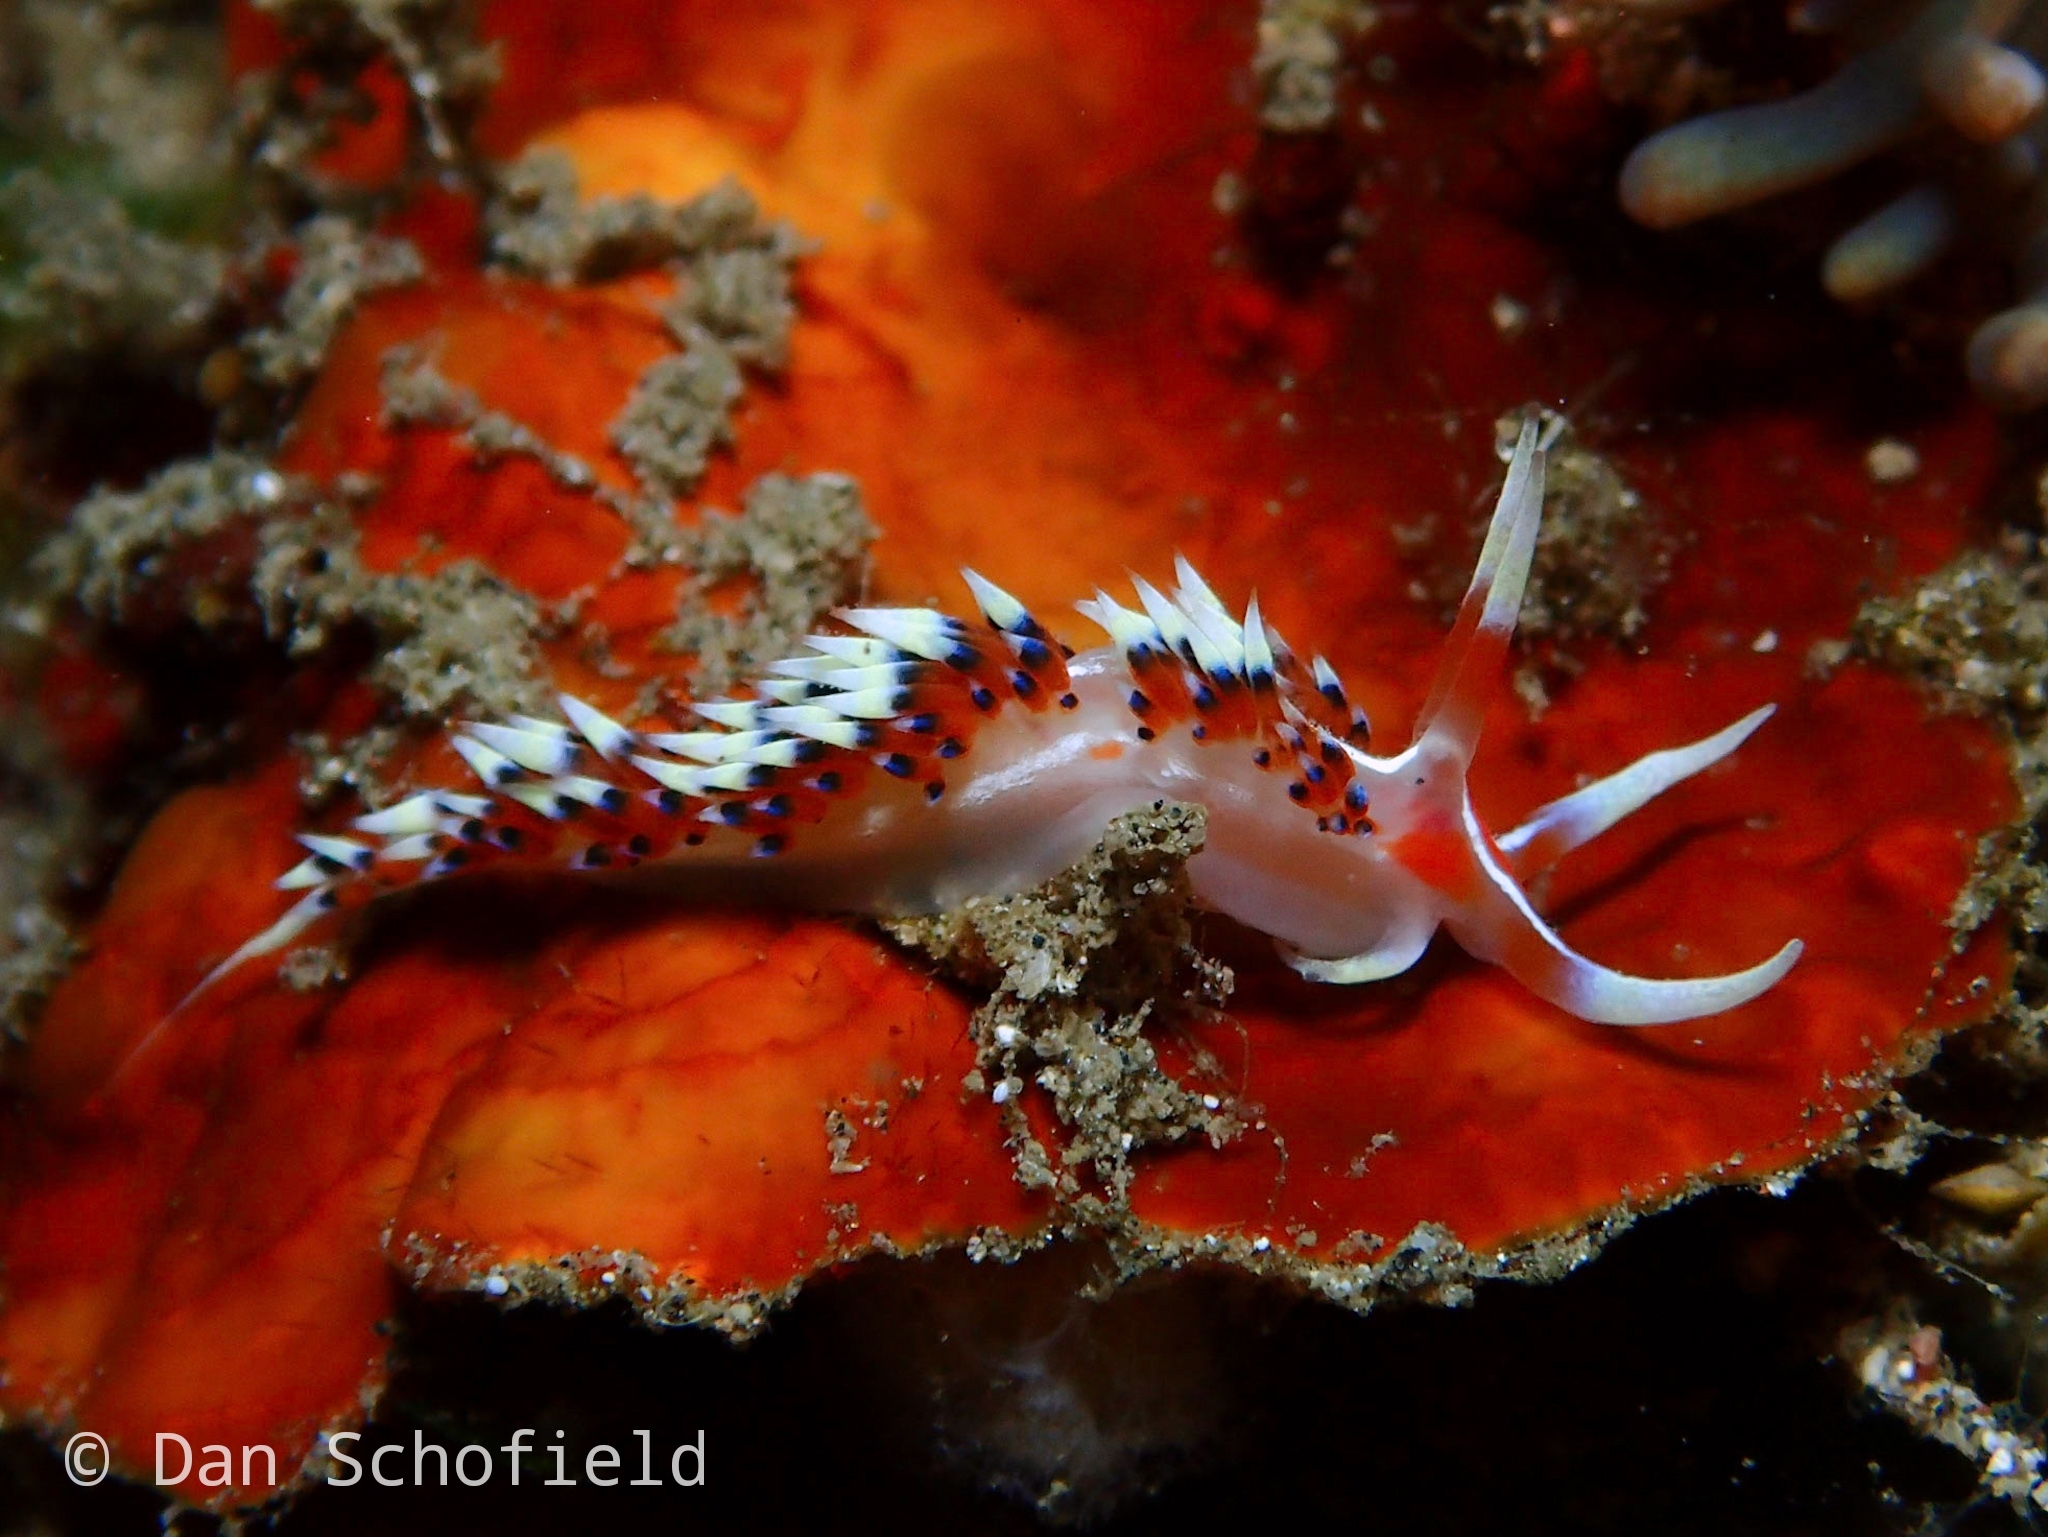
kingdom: Animalia
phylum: Mollusca
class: Gastropoda
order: Nudibranchia
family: Facelinidae
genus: Caloria
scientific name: Caloria indica
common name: Sea slug
